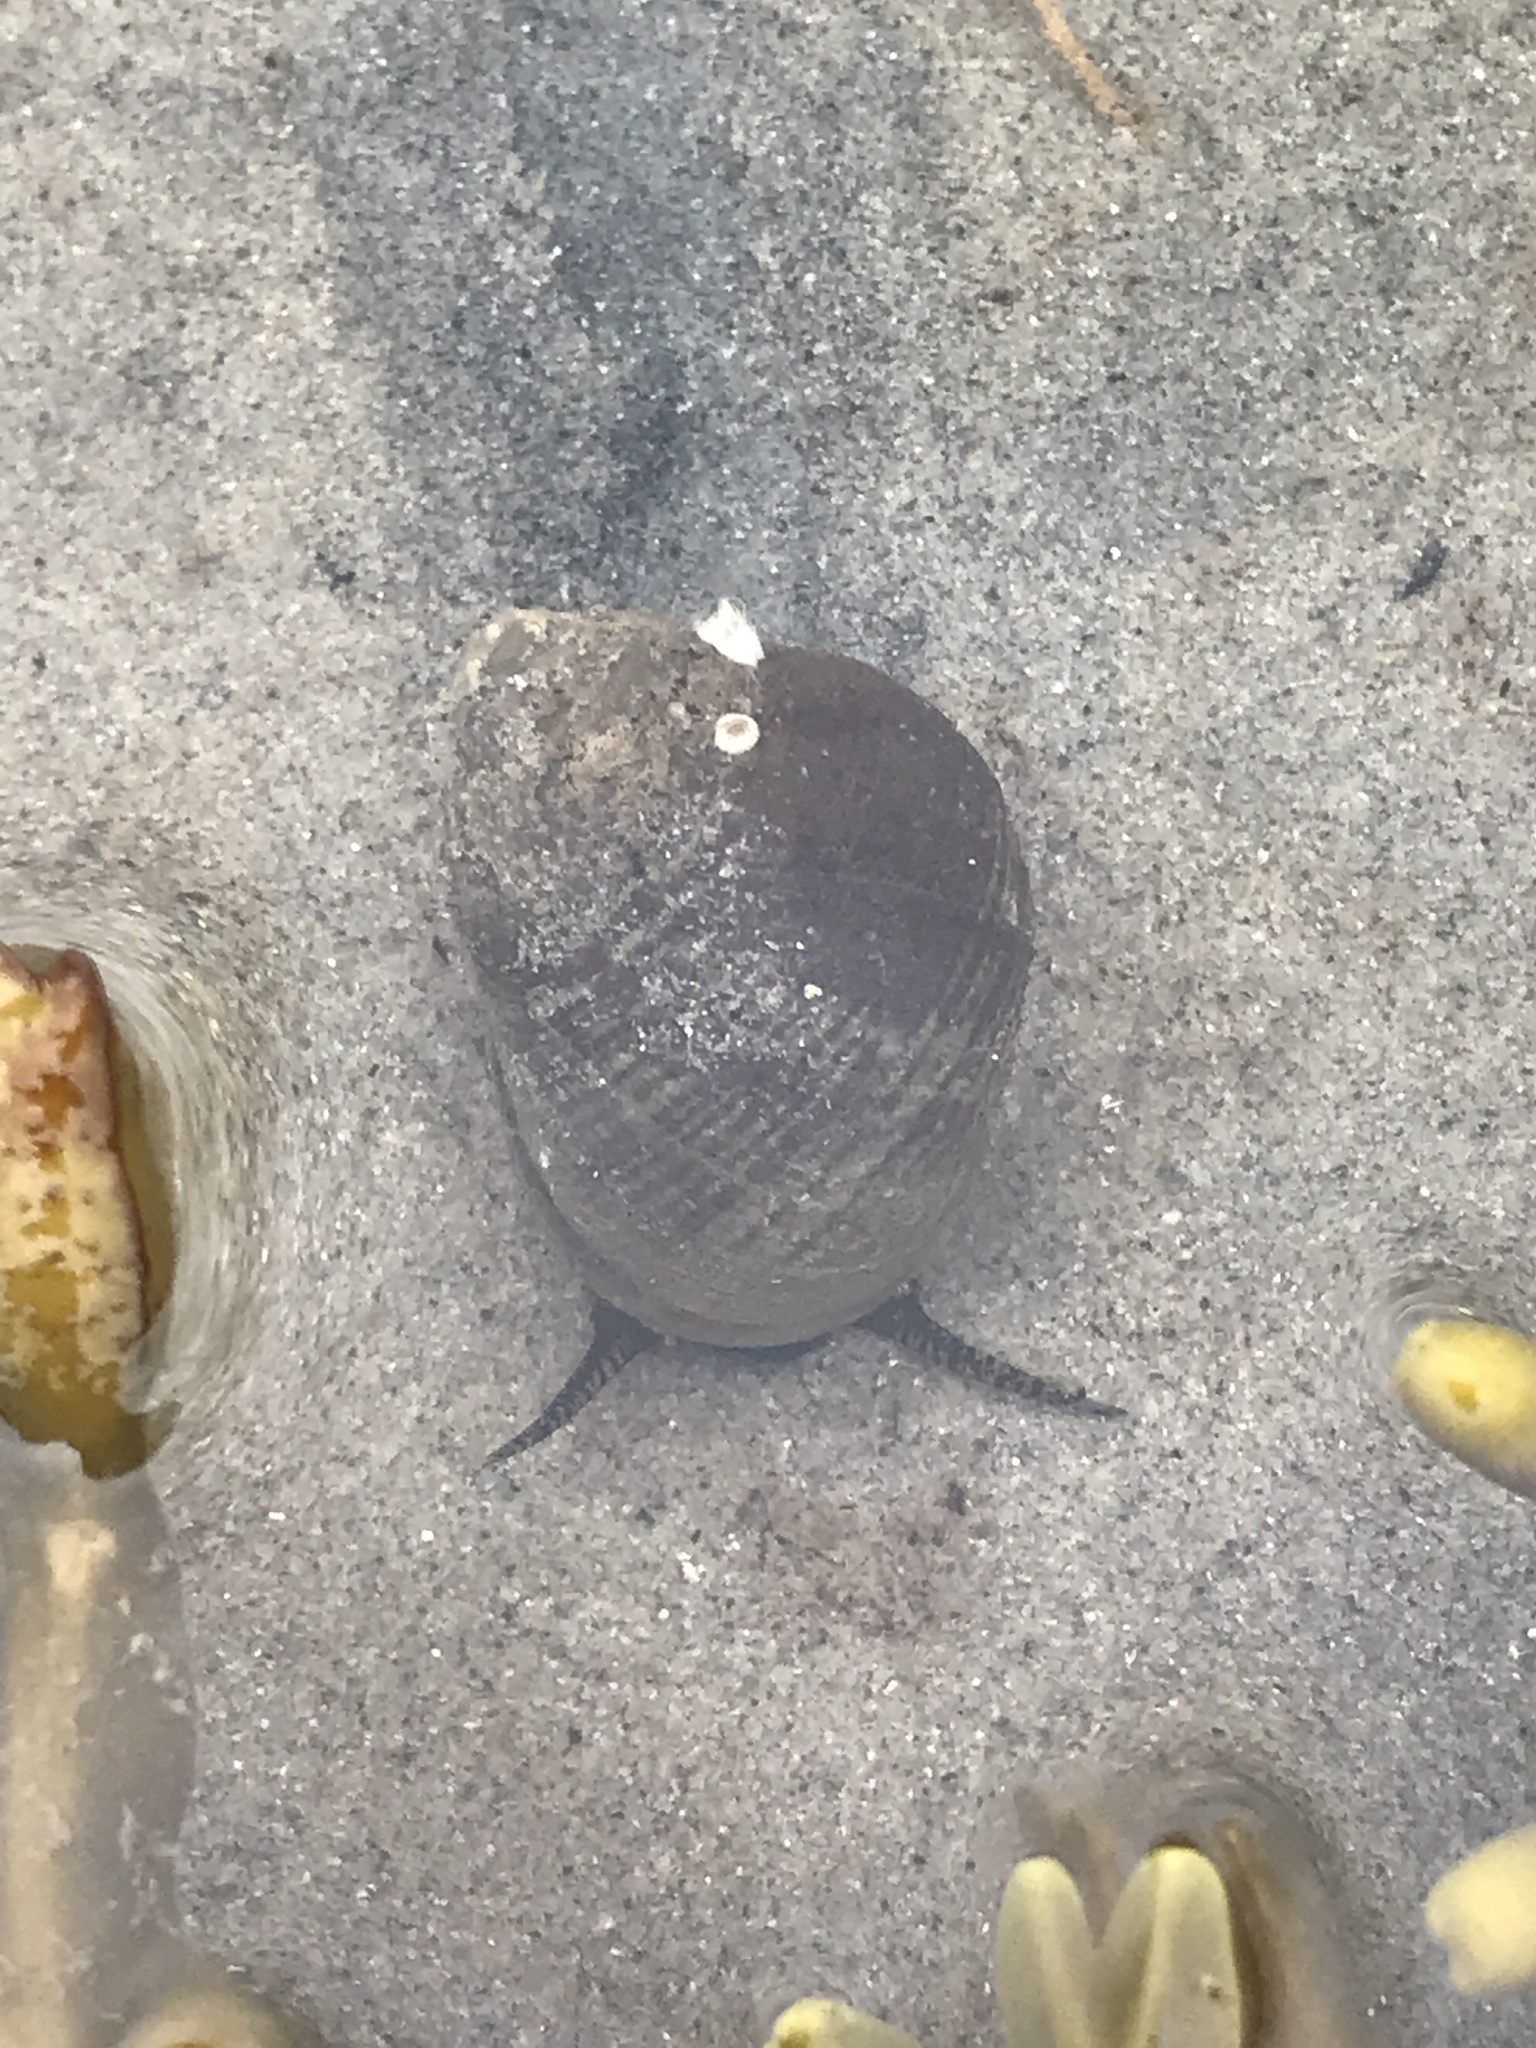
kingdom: Animalia
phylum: Mollusca
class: Gastropoda
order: Littorinimorpha
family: Littorinidae
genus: Littorina
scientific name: Littorina littorea
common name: Common periwinkle
